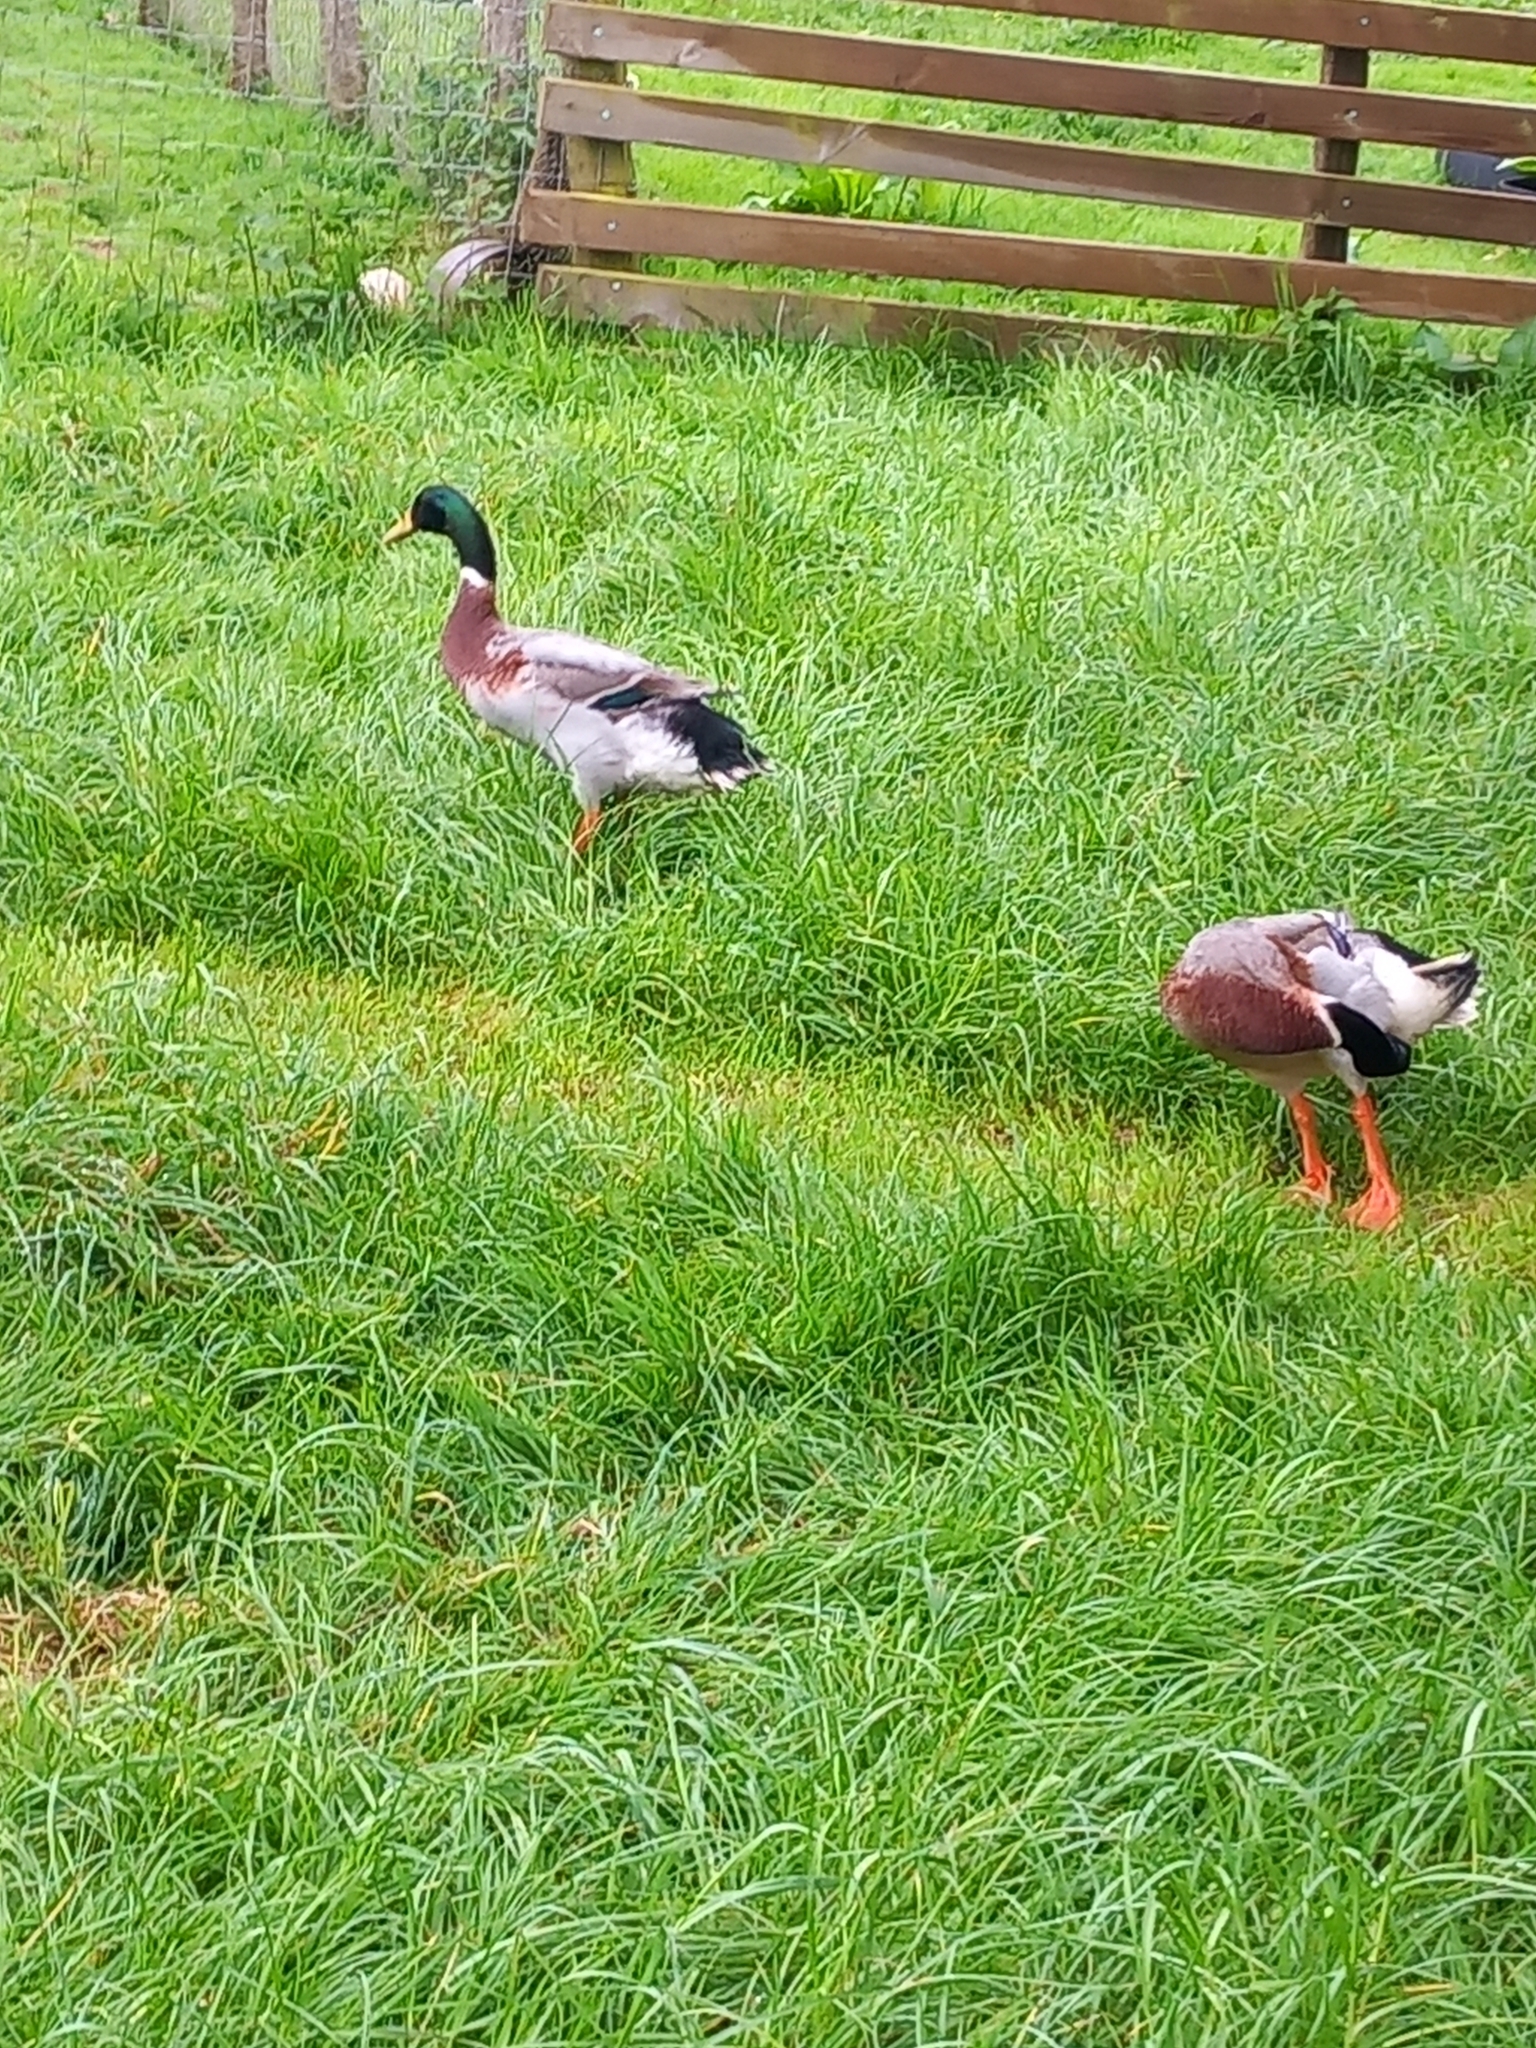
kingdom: Animalia
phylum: Chordata
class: Aves
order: Anseriformes
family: Anatidae
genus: Anas
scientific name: Anas platyrhynchos
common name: Mallard
